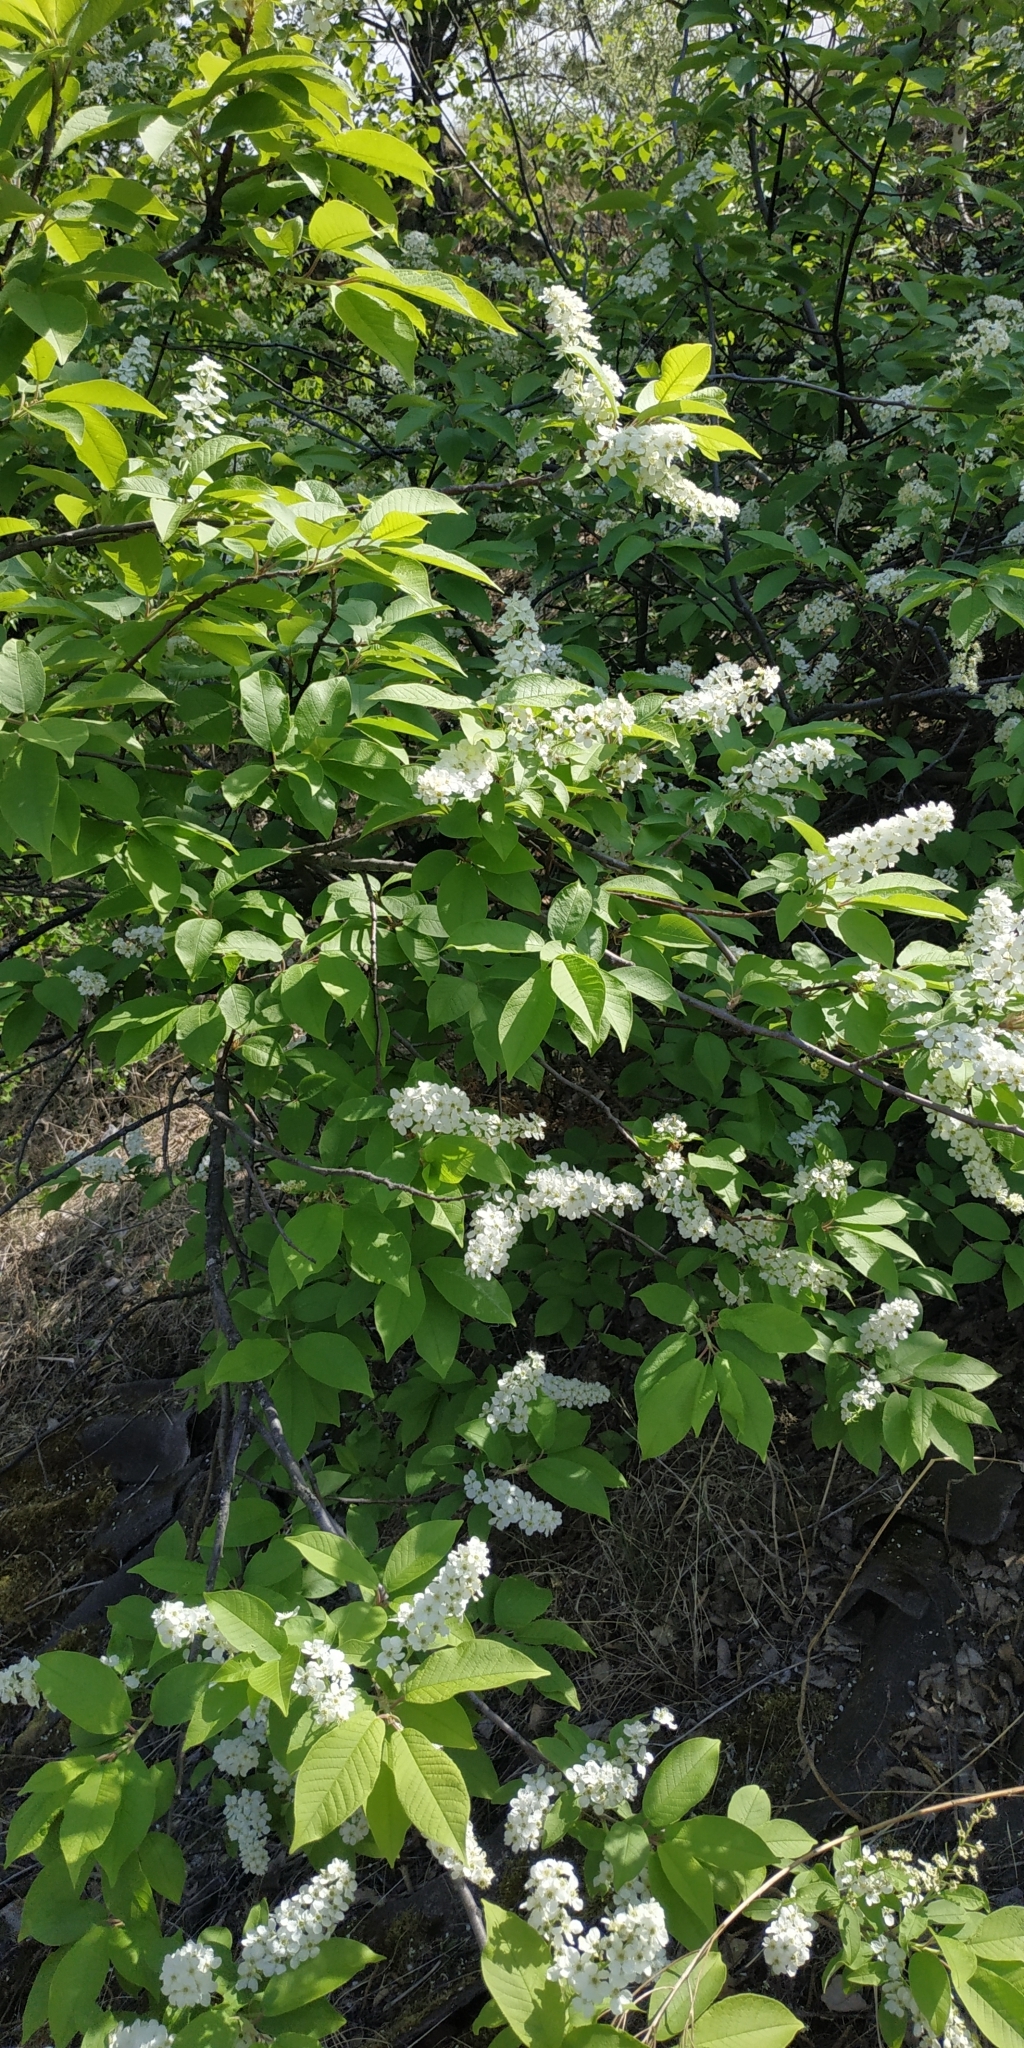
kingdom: Plantae
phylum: Tracheophyta
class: Magnoliopsida
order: Rosales
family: Rosaceae
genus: Prunus
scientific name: Prunus padus
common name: Bird cherry
